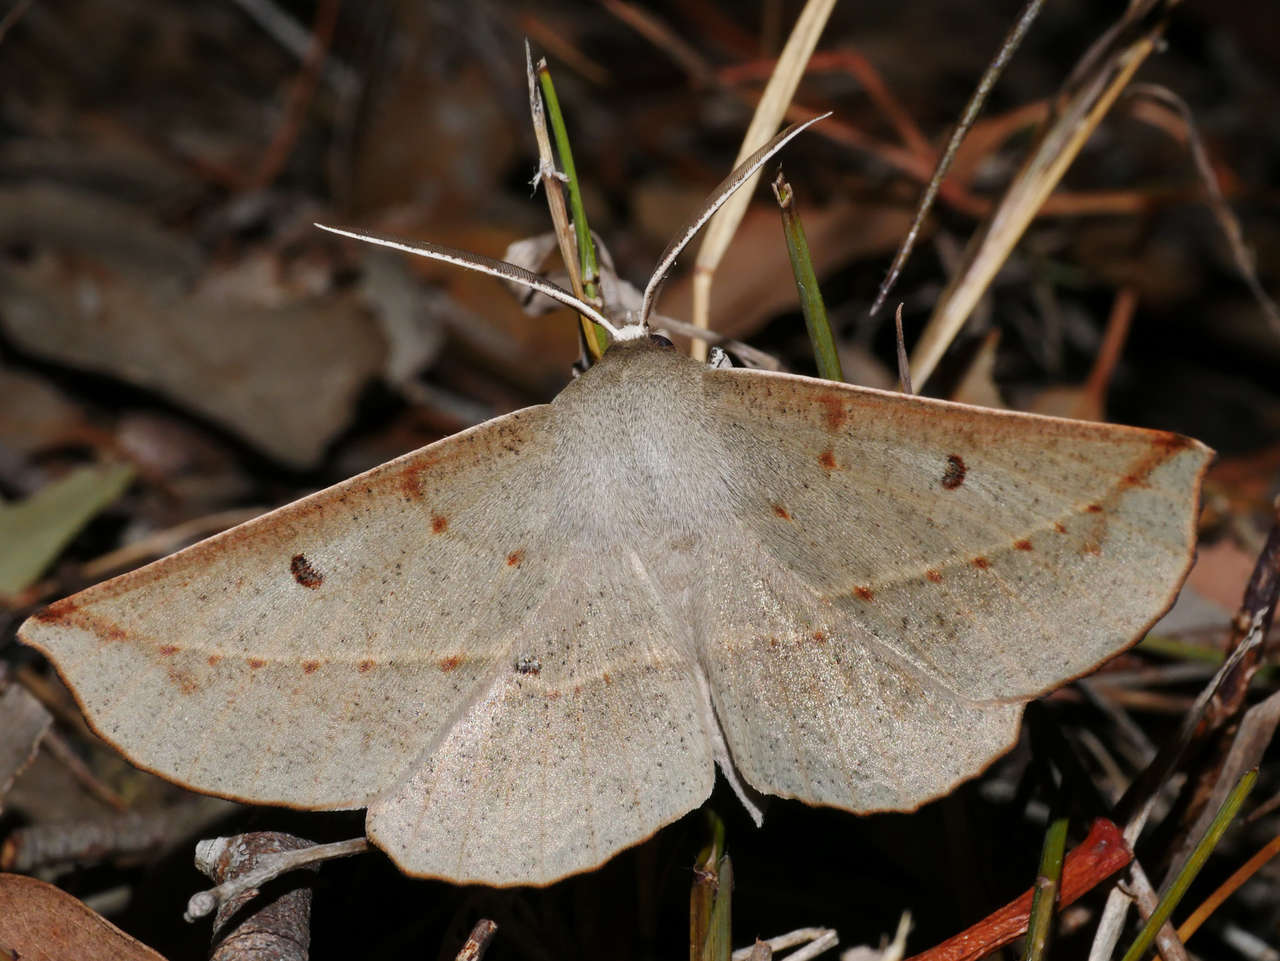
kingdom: Animalia
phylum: Arthropoda
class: Insecta
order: Lepidoptera
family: Geometridae
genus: Phallaria
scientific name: Phallaria ophiusaria
